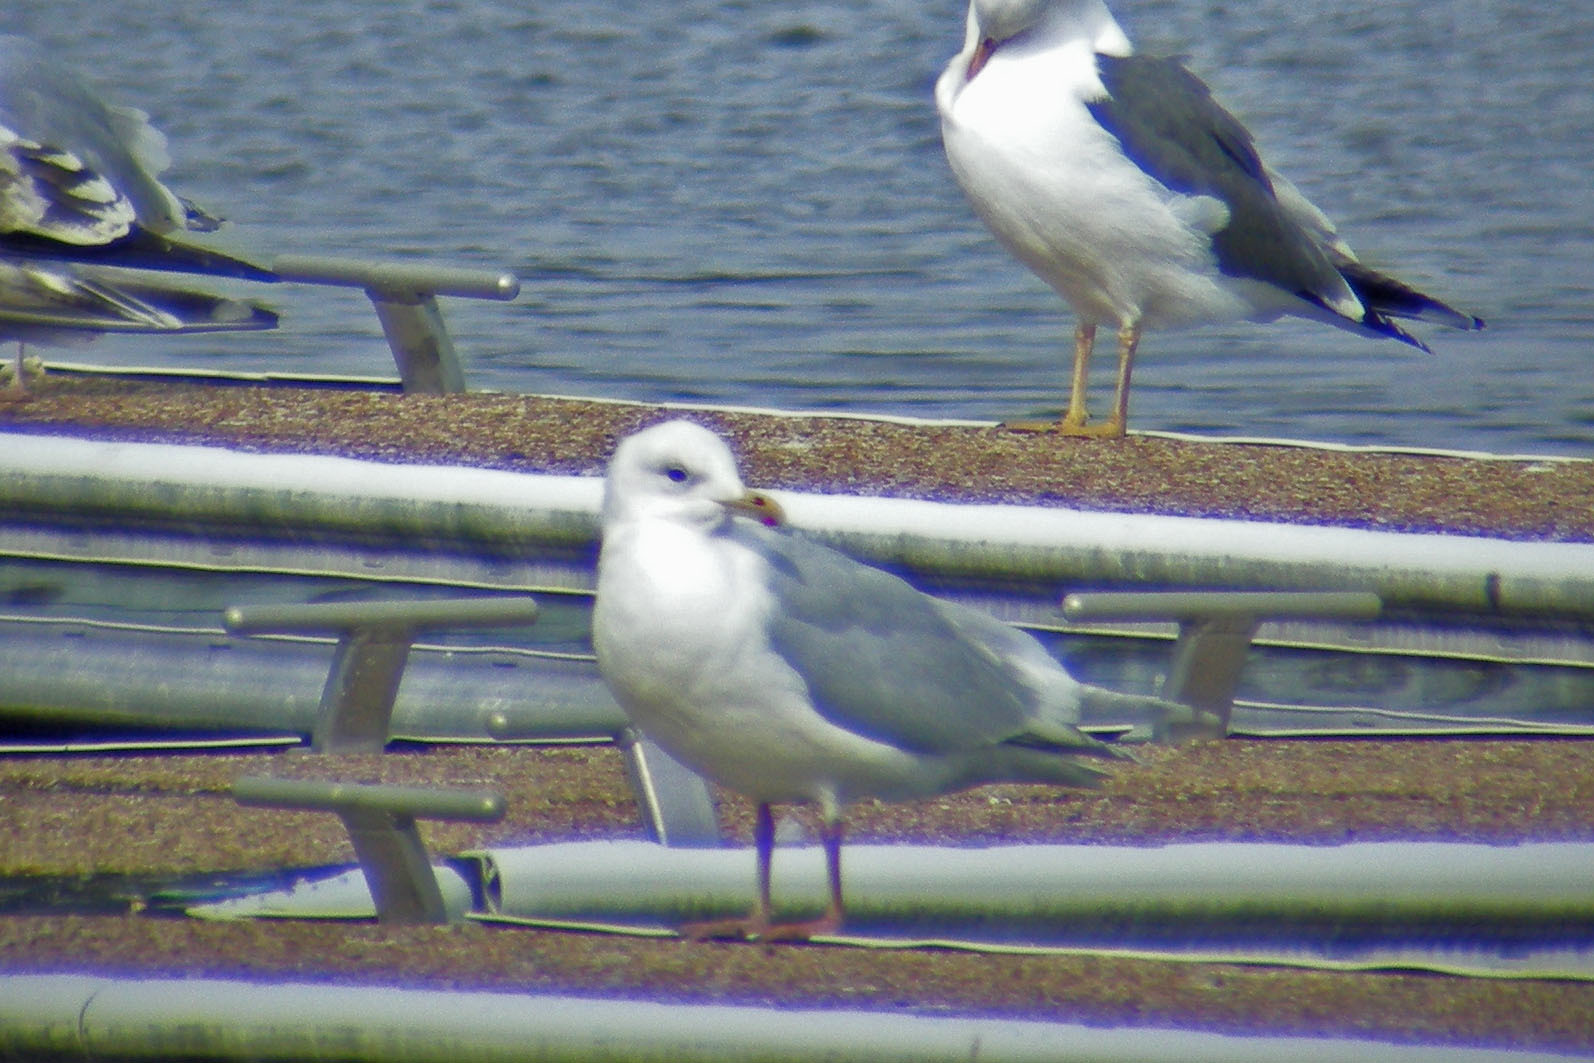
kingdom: Animalia
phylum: Chordata
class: Aves
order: Charadriiformes
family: Laridae
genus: Larus
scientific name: Larus glaucoides
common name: Iceland gull
